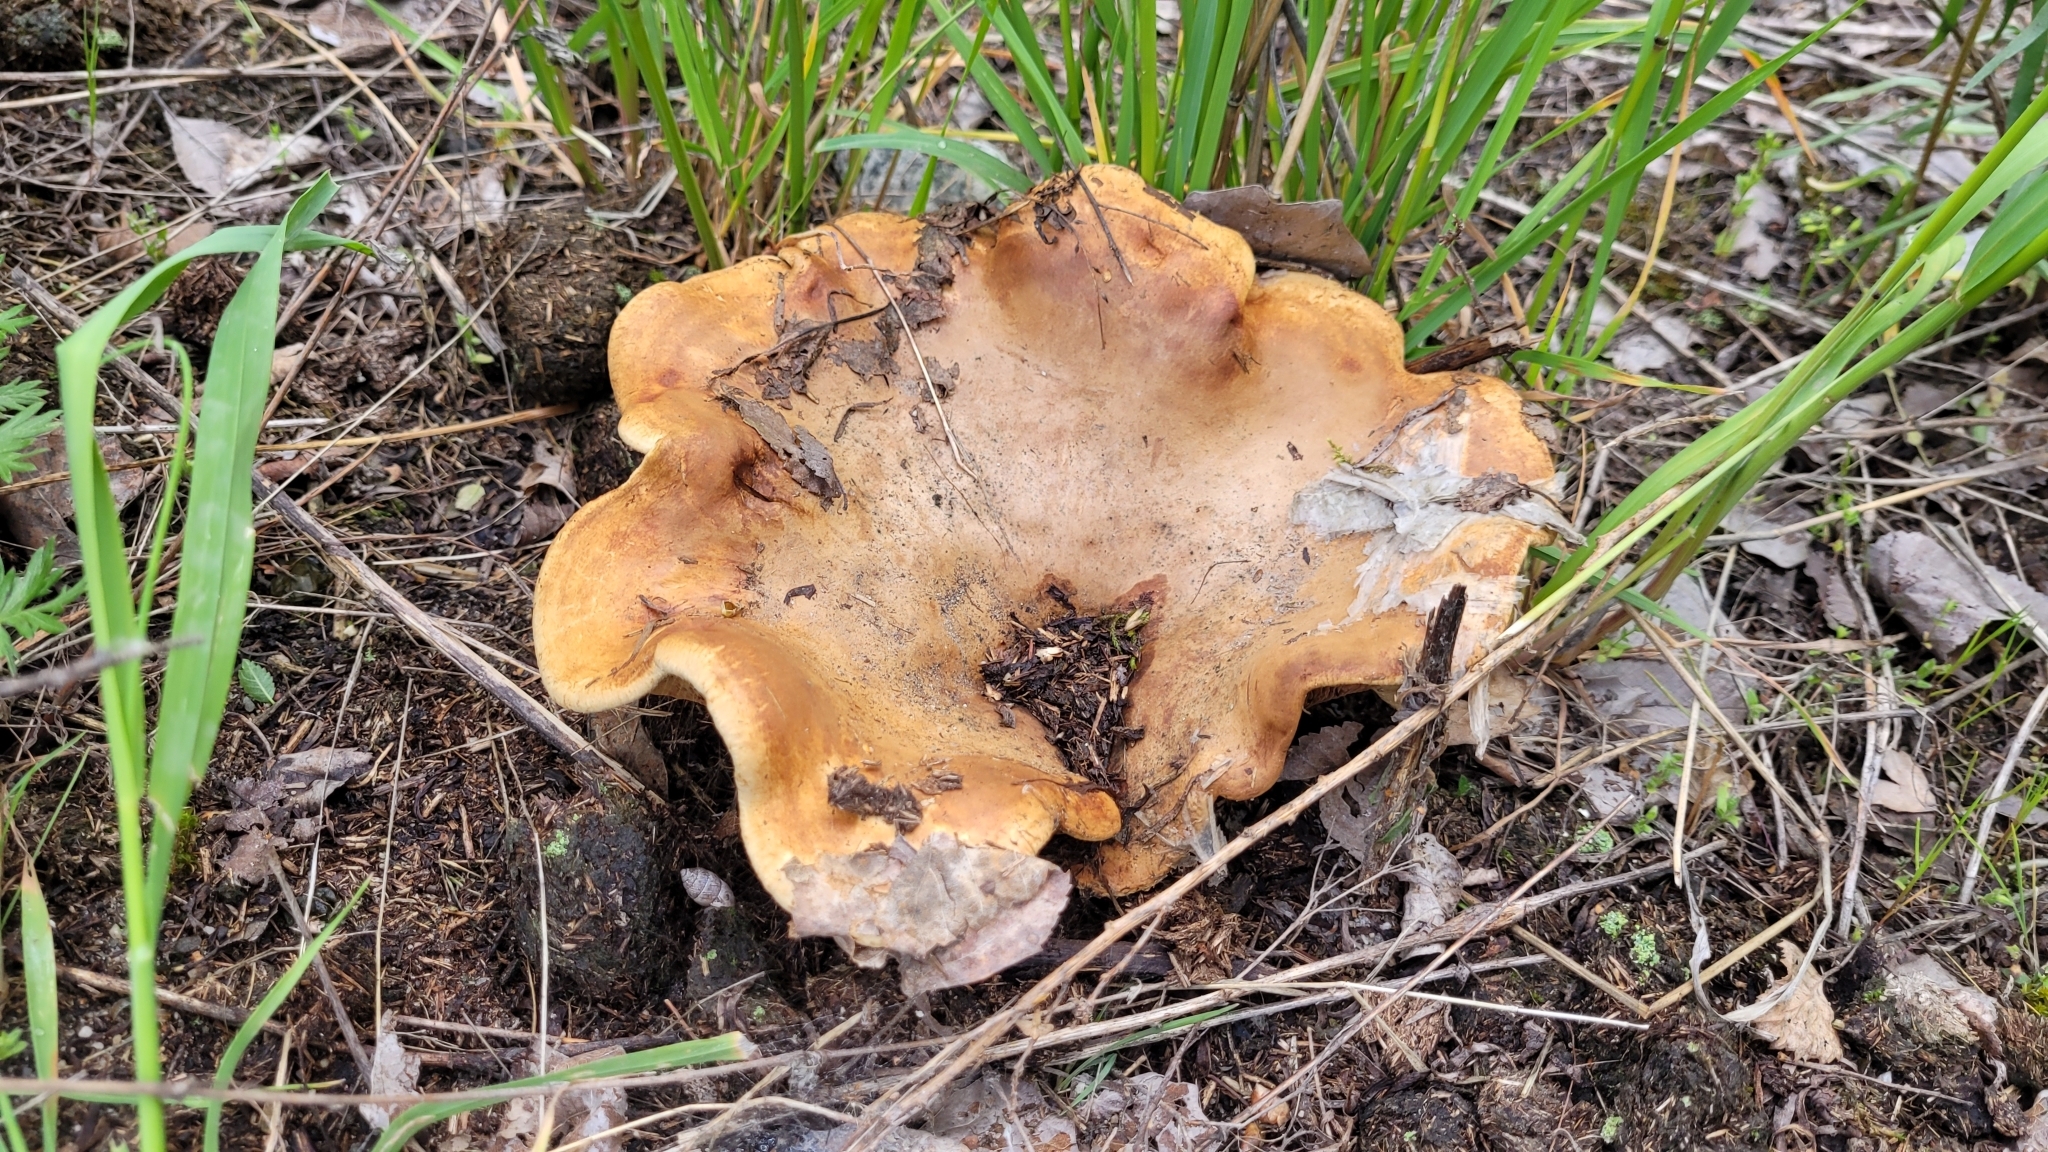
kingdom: Fungi
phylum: Basidiomycota
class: Agaricomycetes
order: Boletales
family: Paxillaceae
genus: Paxillus
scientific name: Paxillus involutus
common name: Brown roll rim
